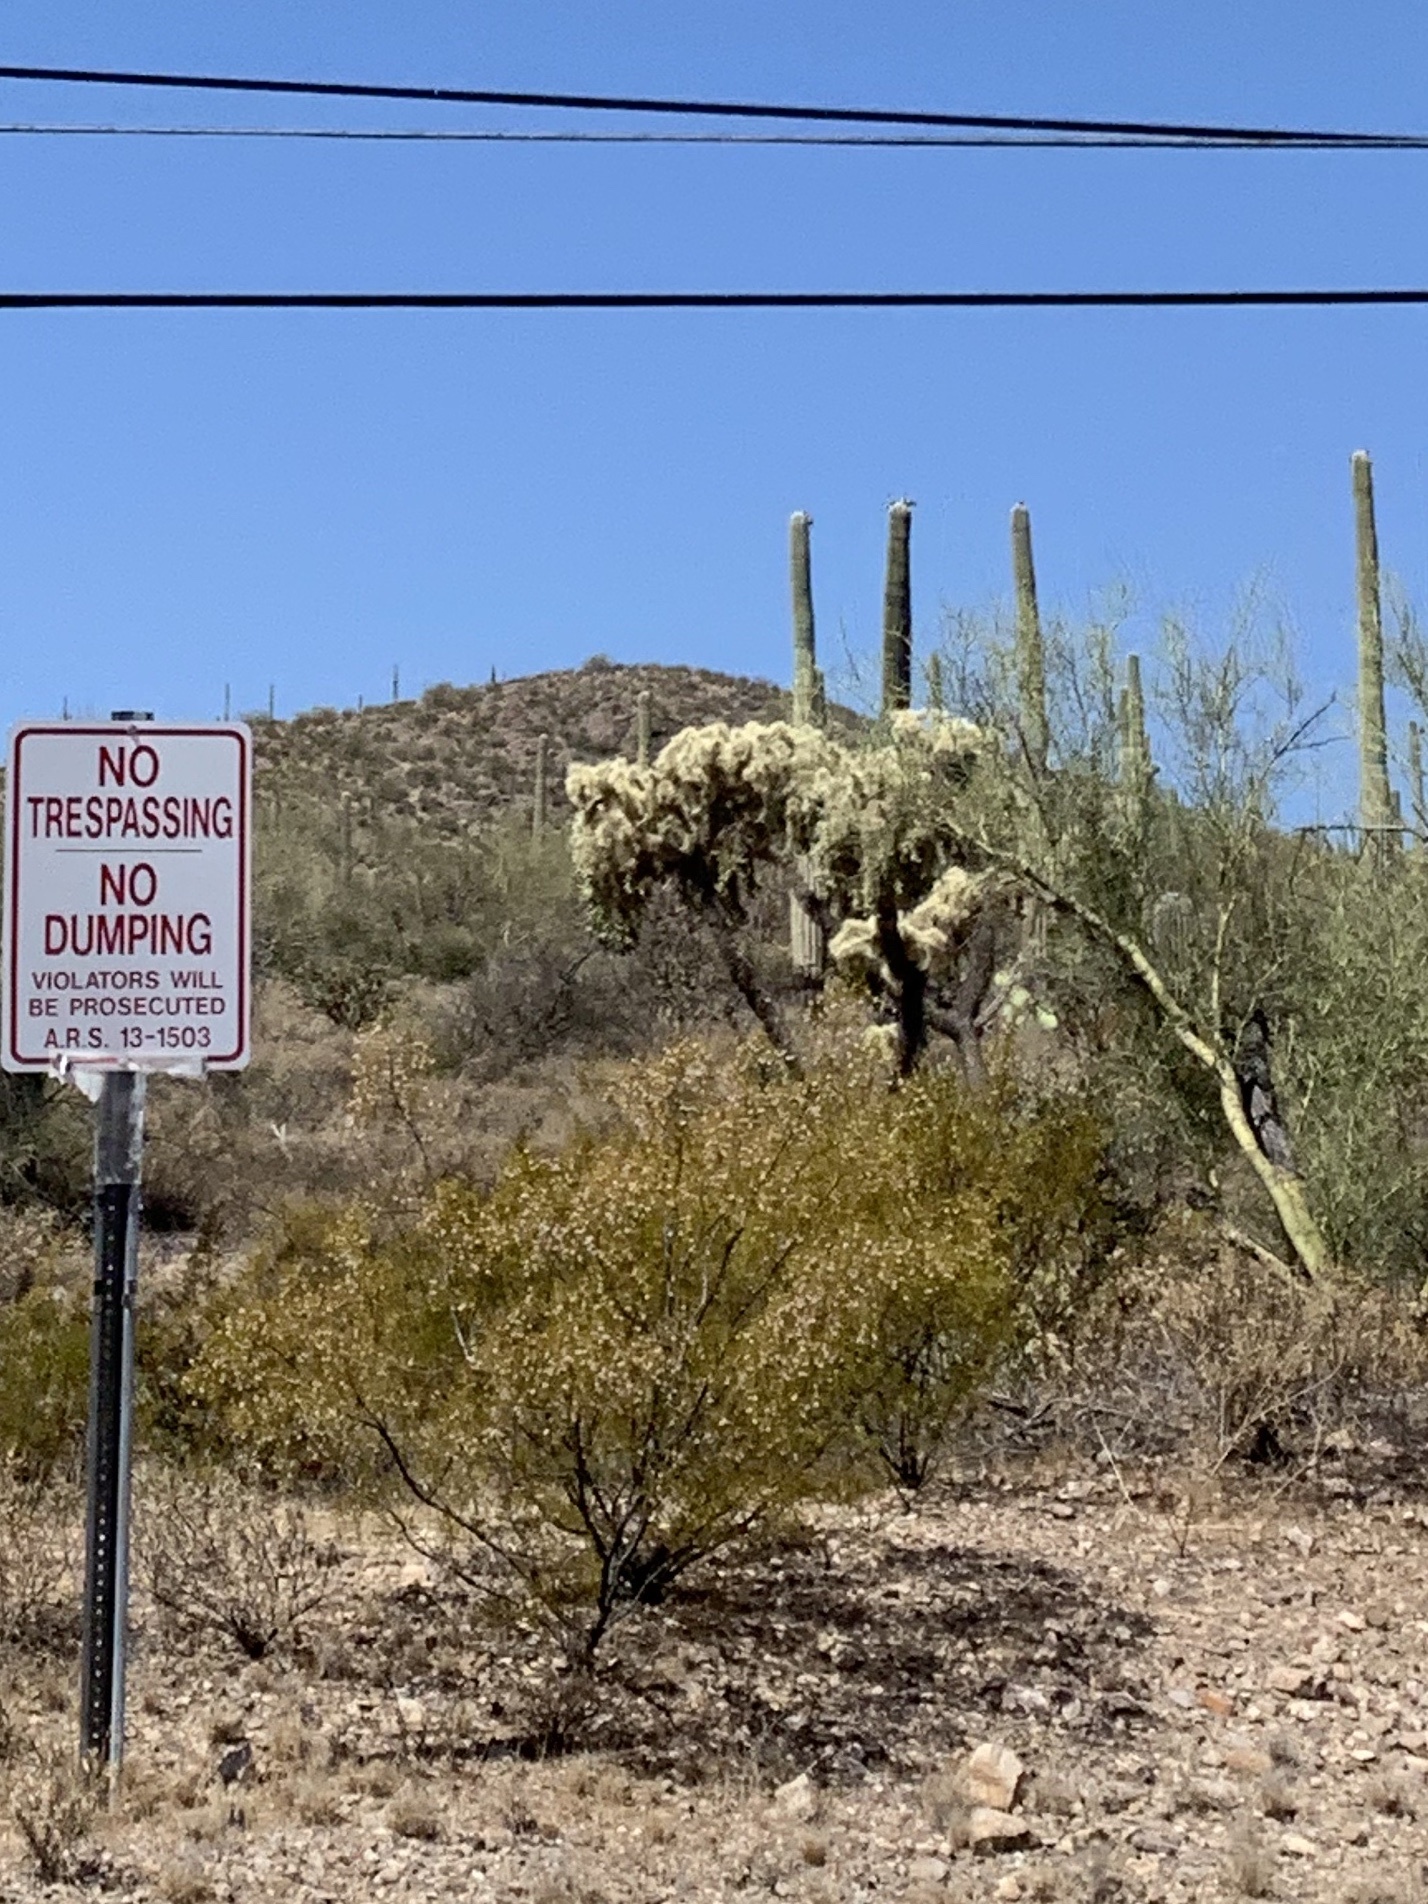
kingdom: Plantae
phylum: Tracheophyta
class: Magnoliopsida
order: Zygophyllales
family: Zygophyllaceae
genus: Larrea
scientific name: Larrea tridentata
